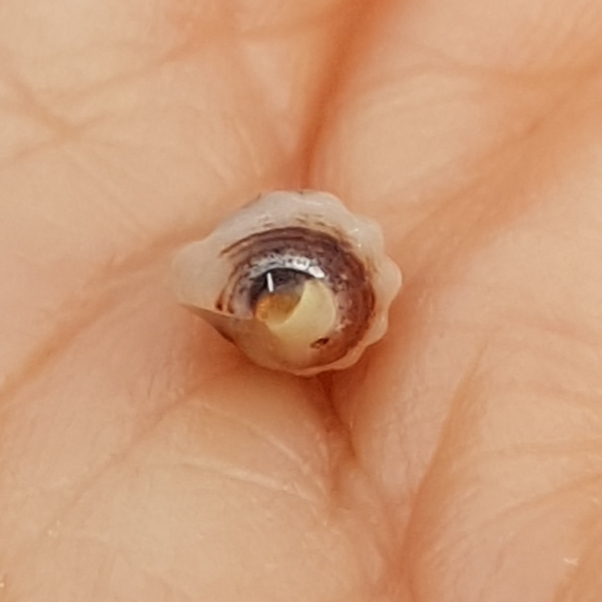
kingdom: Animalia
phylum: Mollusca
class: Gastropoda
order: Neogastropoda
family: Nassariidae
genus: Tritia
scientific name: Tritia incrassata
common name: Thick-lipped dog whelk
